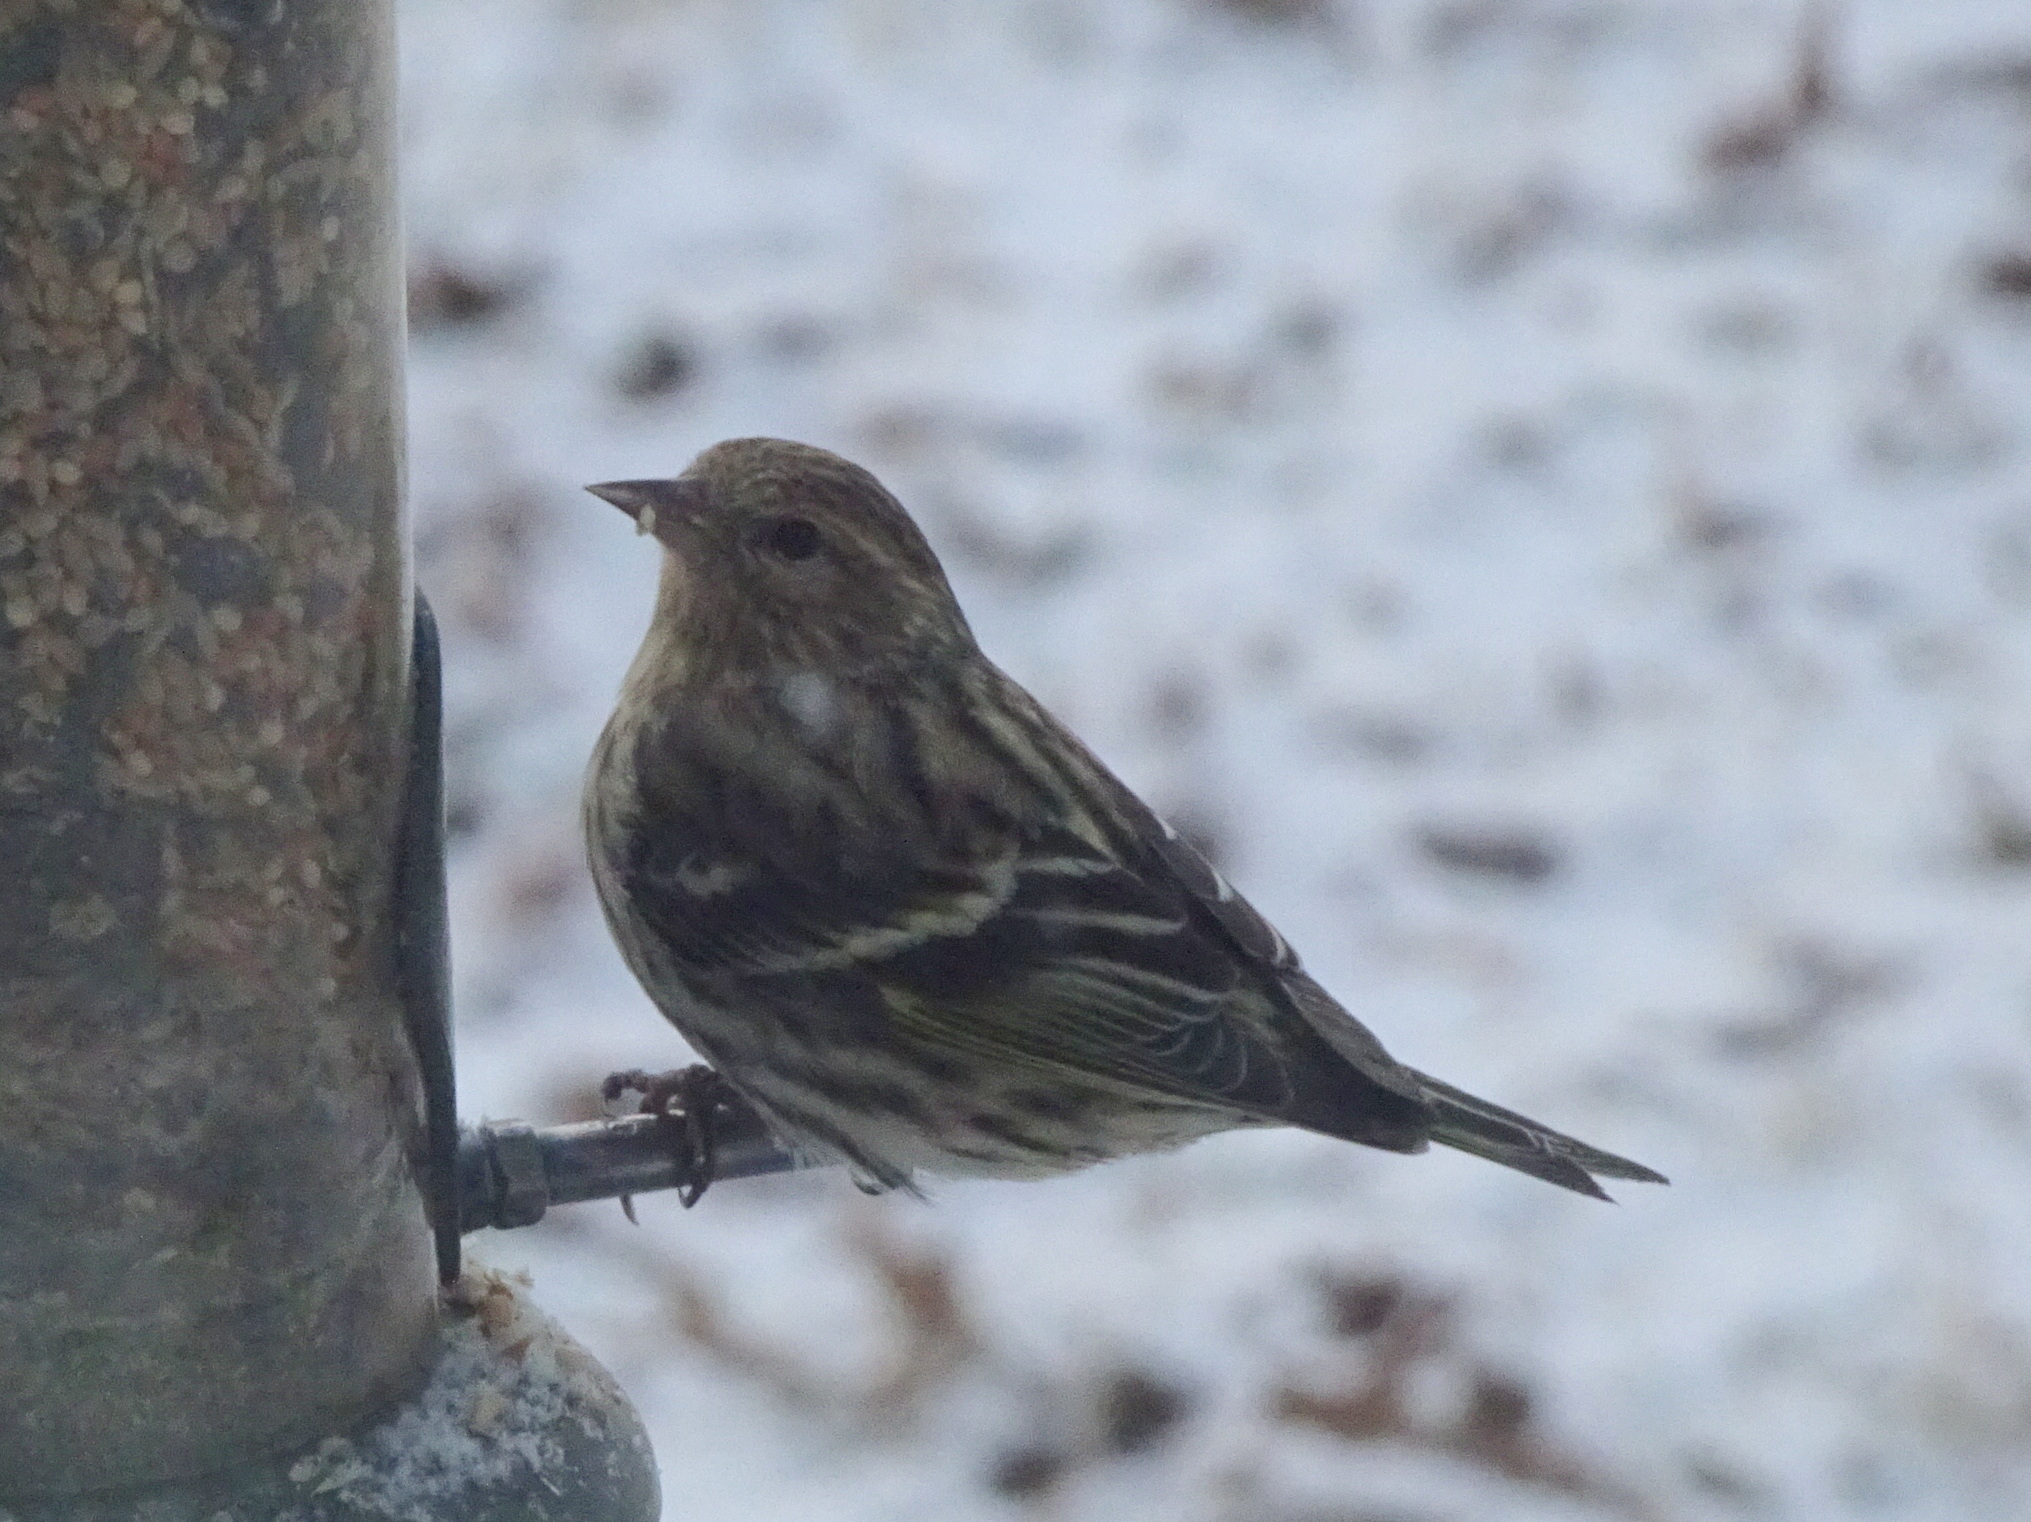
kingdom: Animalia
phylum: Chordata
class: Aves
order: Passeriformes
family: Fringillidae
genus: Spinus
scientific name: Spinus pinus
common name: Pine siskin
